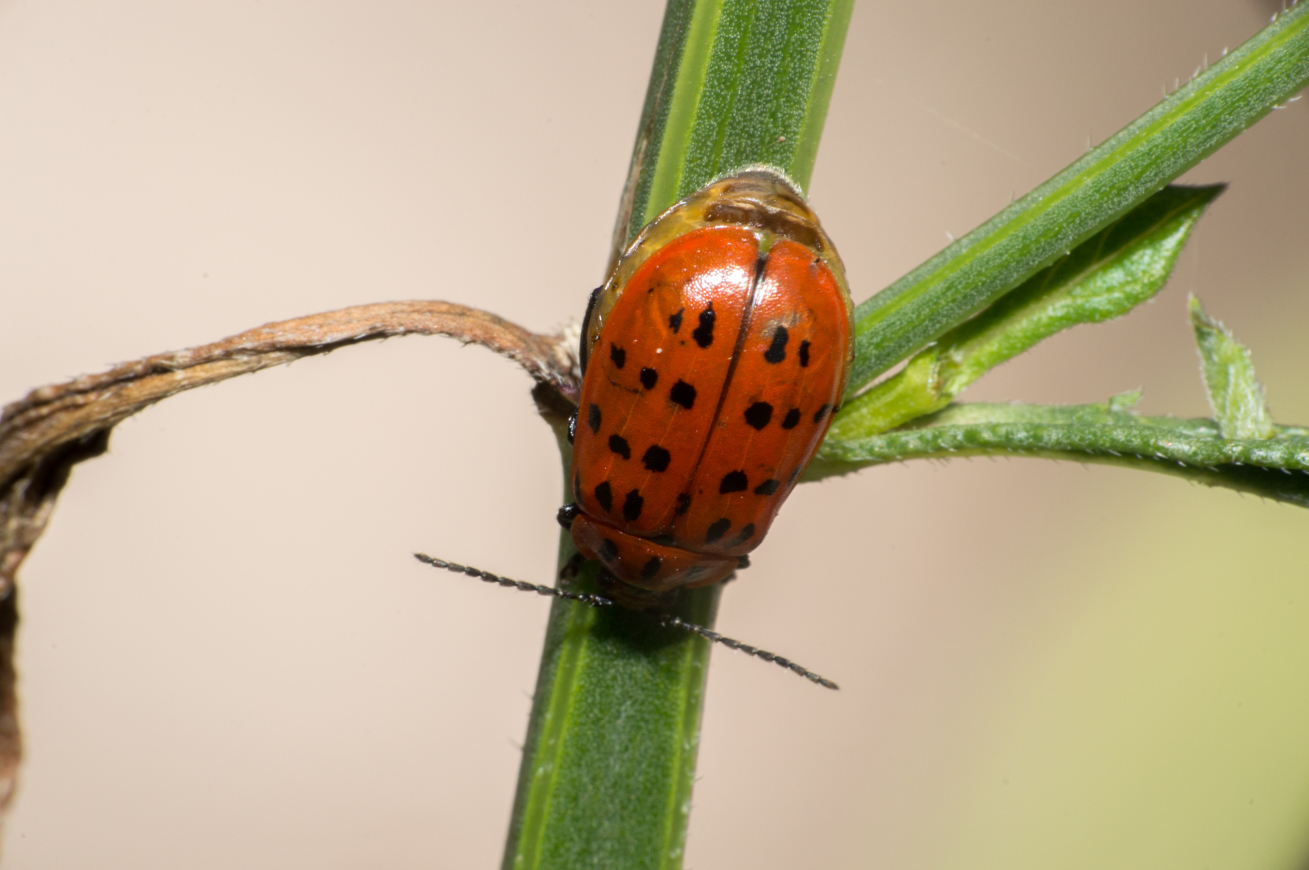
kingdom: Animalia
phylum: Arthropoda
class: Insecta
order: Coleoptera
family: Chrysomelidae
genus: Alagoasa
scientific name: Alagoasa
